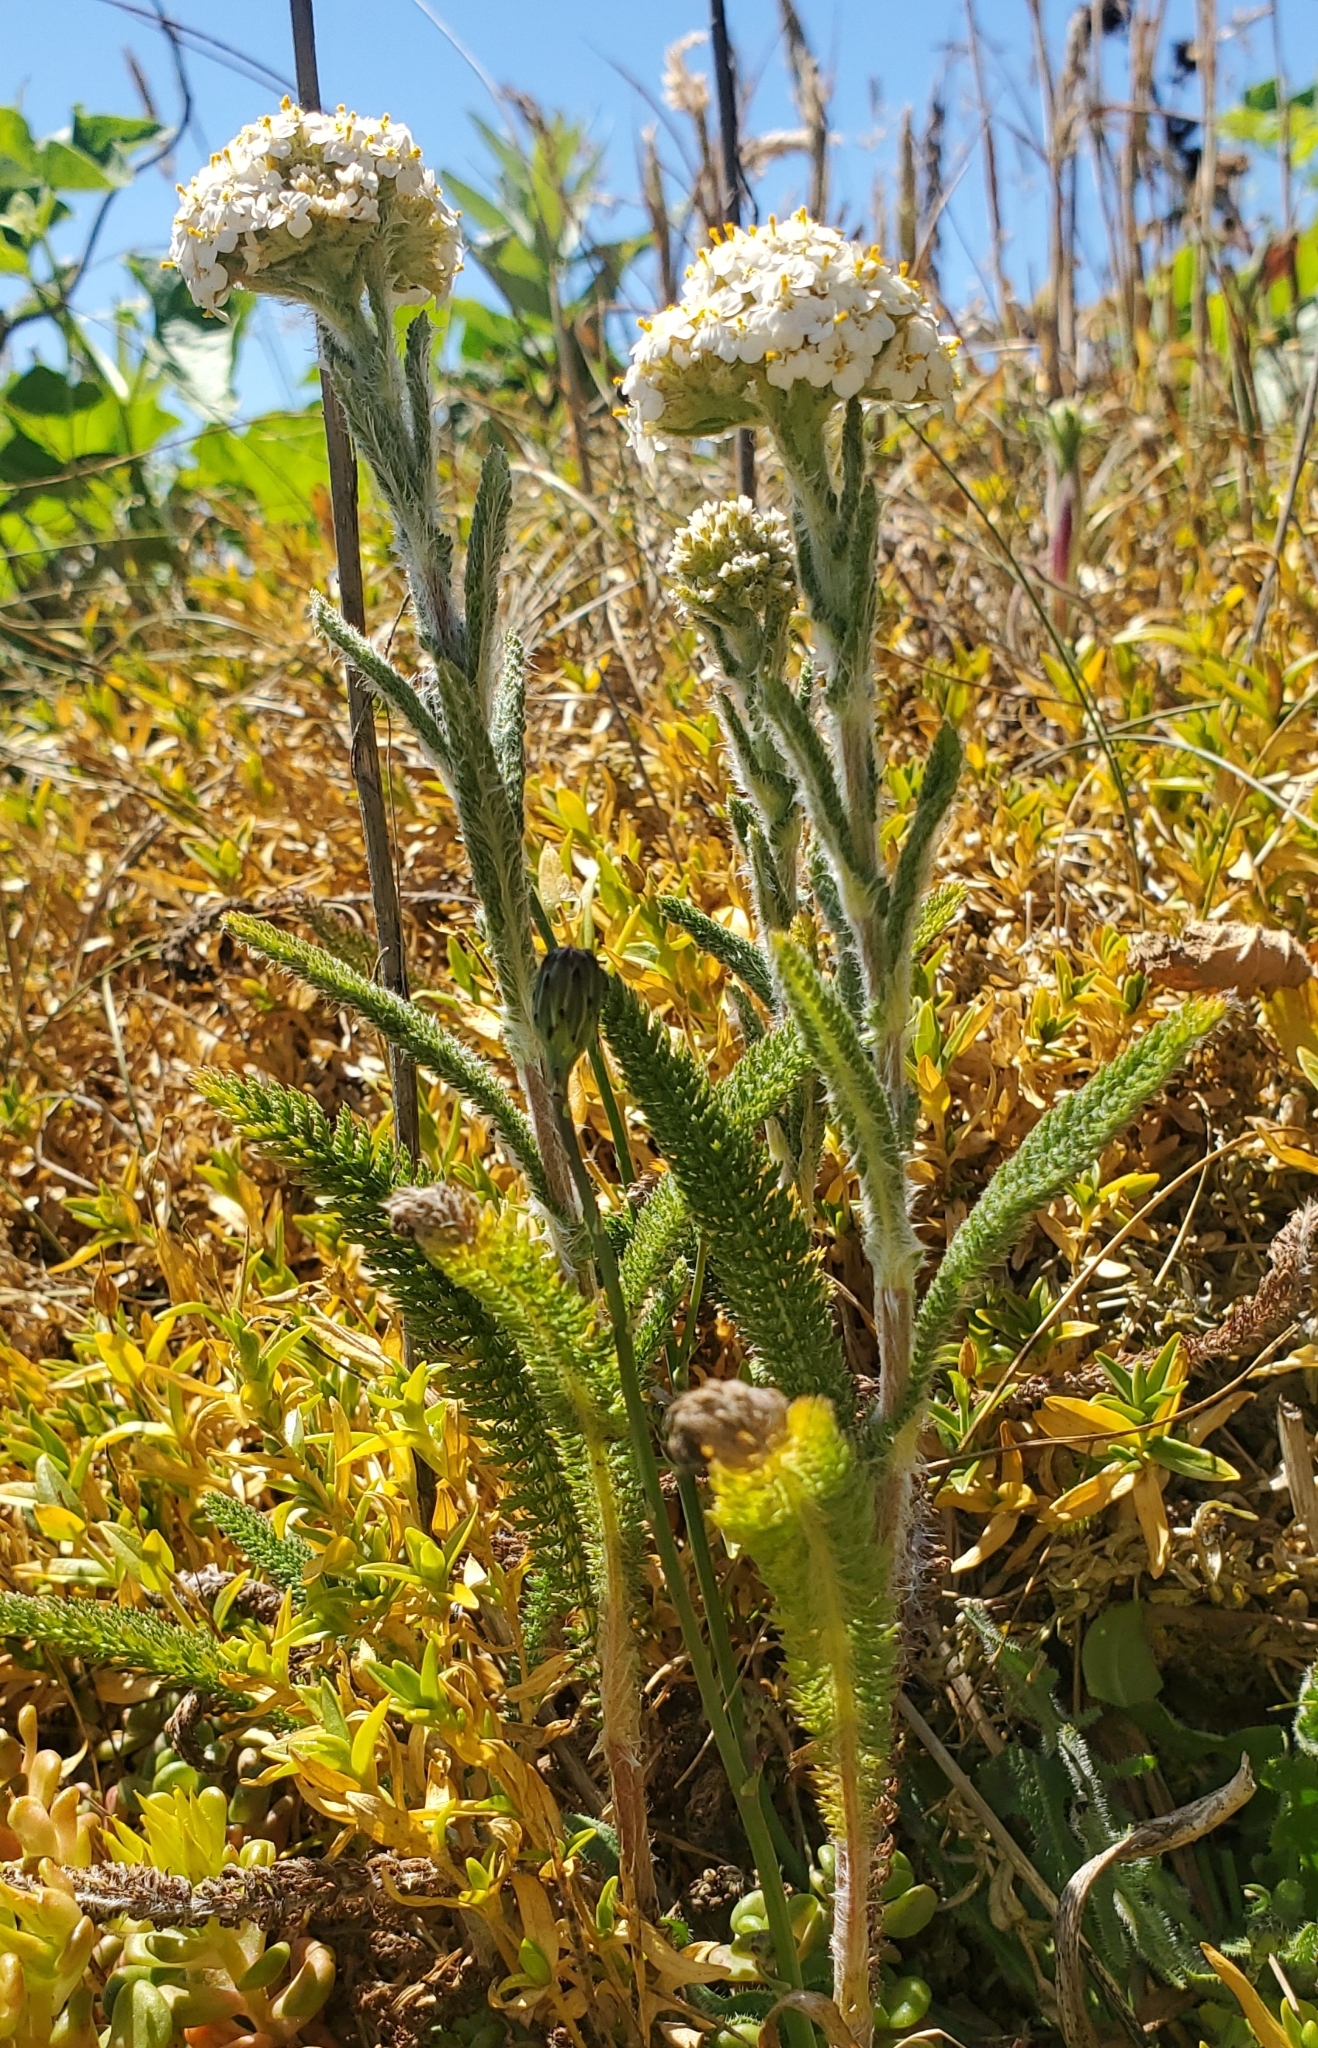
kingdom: Plantae
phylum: Tracheophyta
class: Magnoliopsida
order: Asterales
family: Asteraceae
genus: Achillea
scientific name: Achillea millefolium
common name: Yarrow
